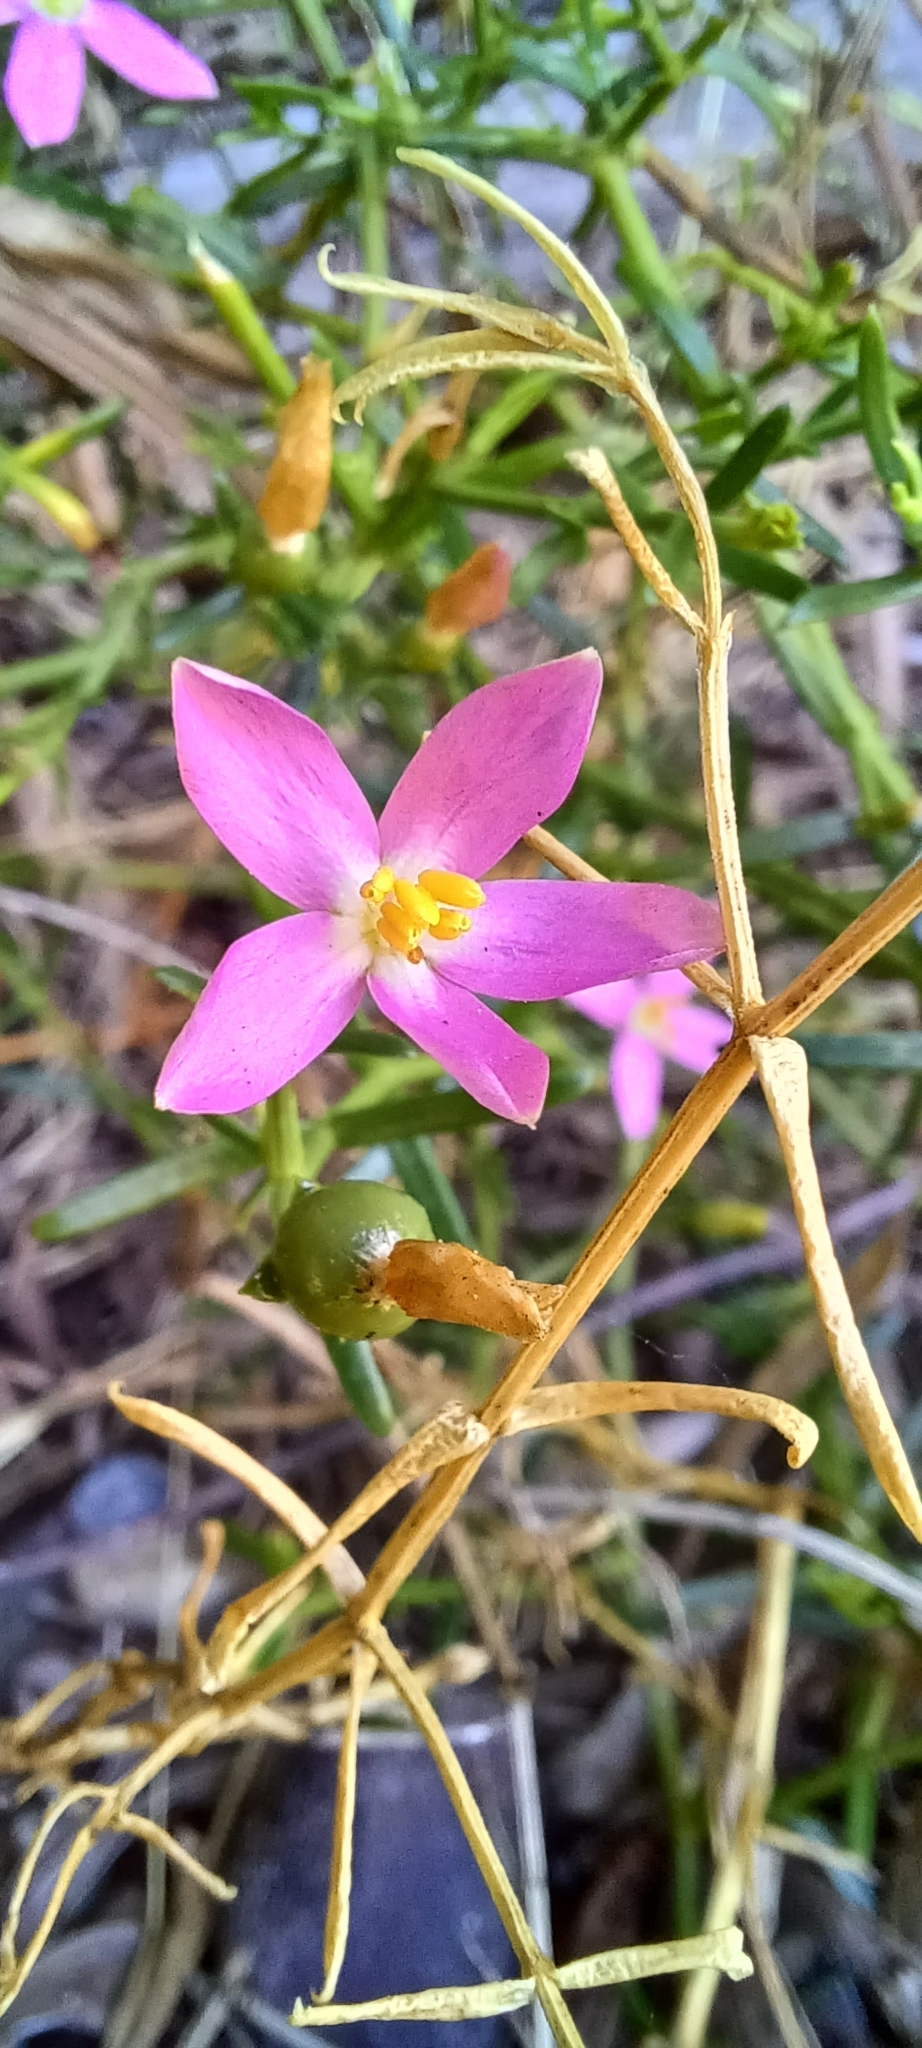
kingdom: Plantae
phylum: Tracheophyta
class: Magnoliopsida
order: Gentianales
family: Gentianaceae
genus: Chironia
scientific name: Chironia baccifera
